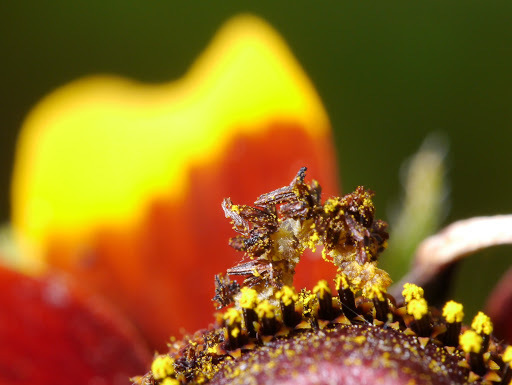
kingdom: Animalia
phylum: Arthropoda
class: Insecta
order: Lepidoptera
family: Geometridae
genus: Synchlora
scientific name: Synchlora
